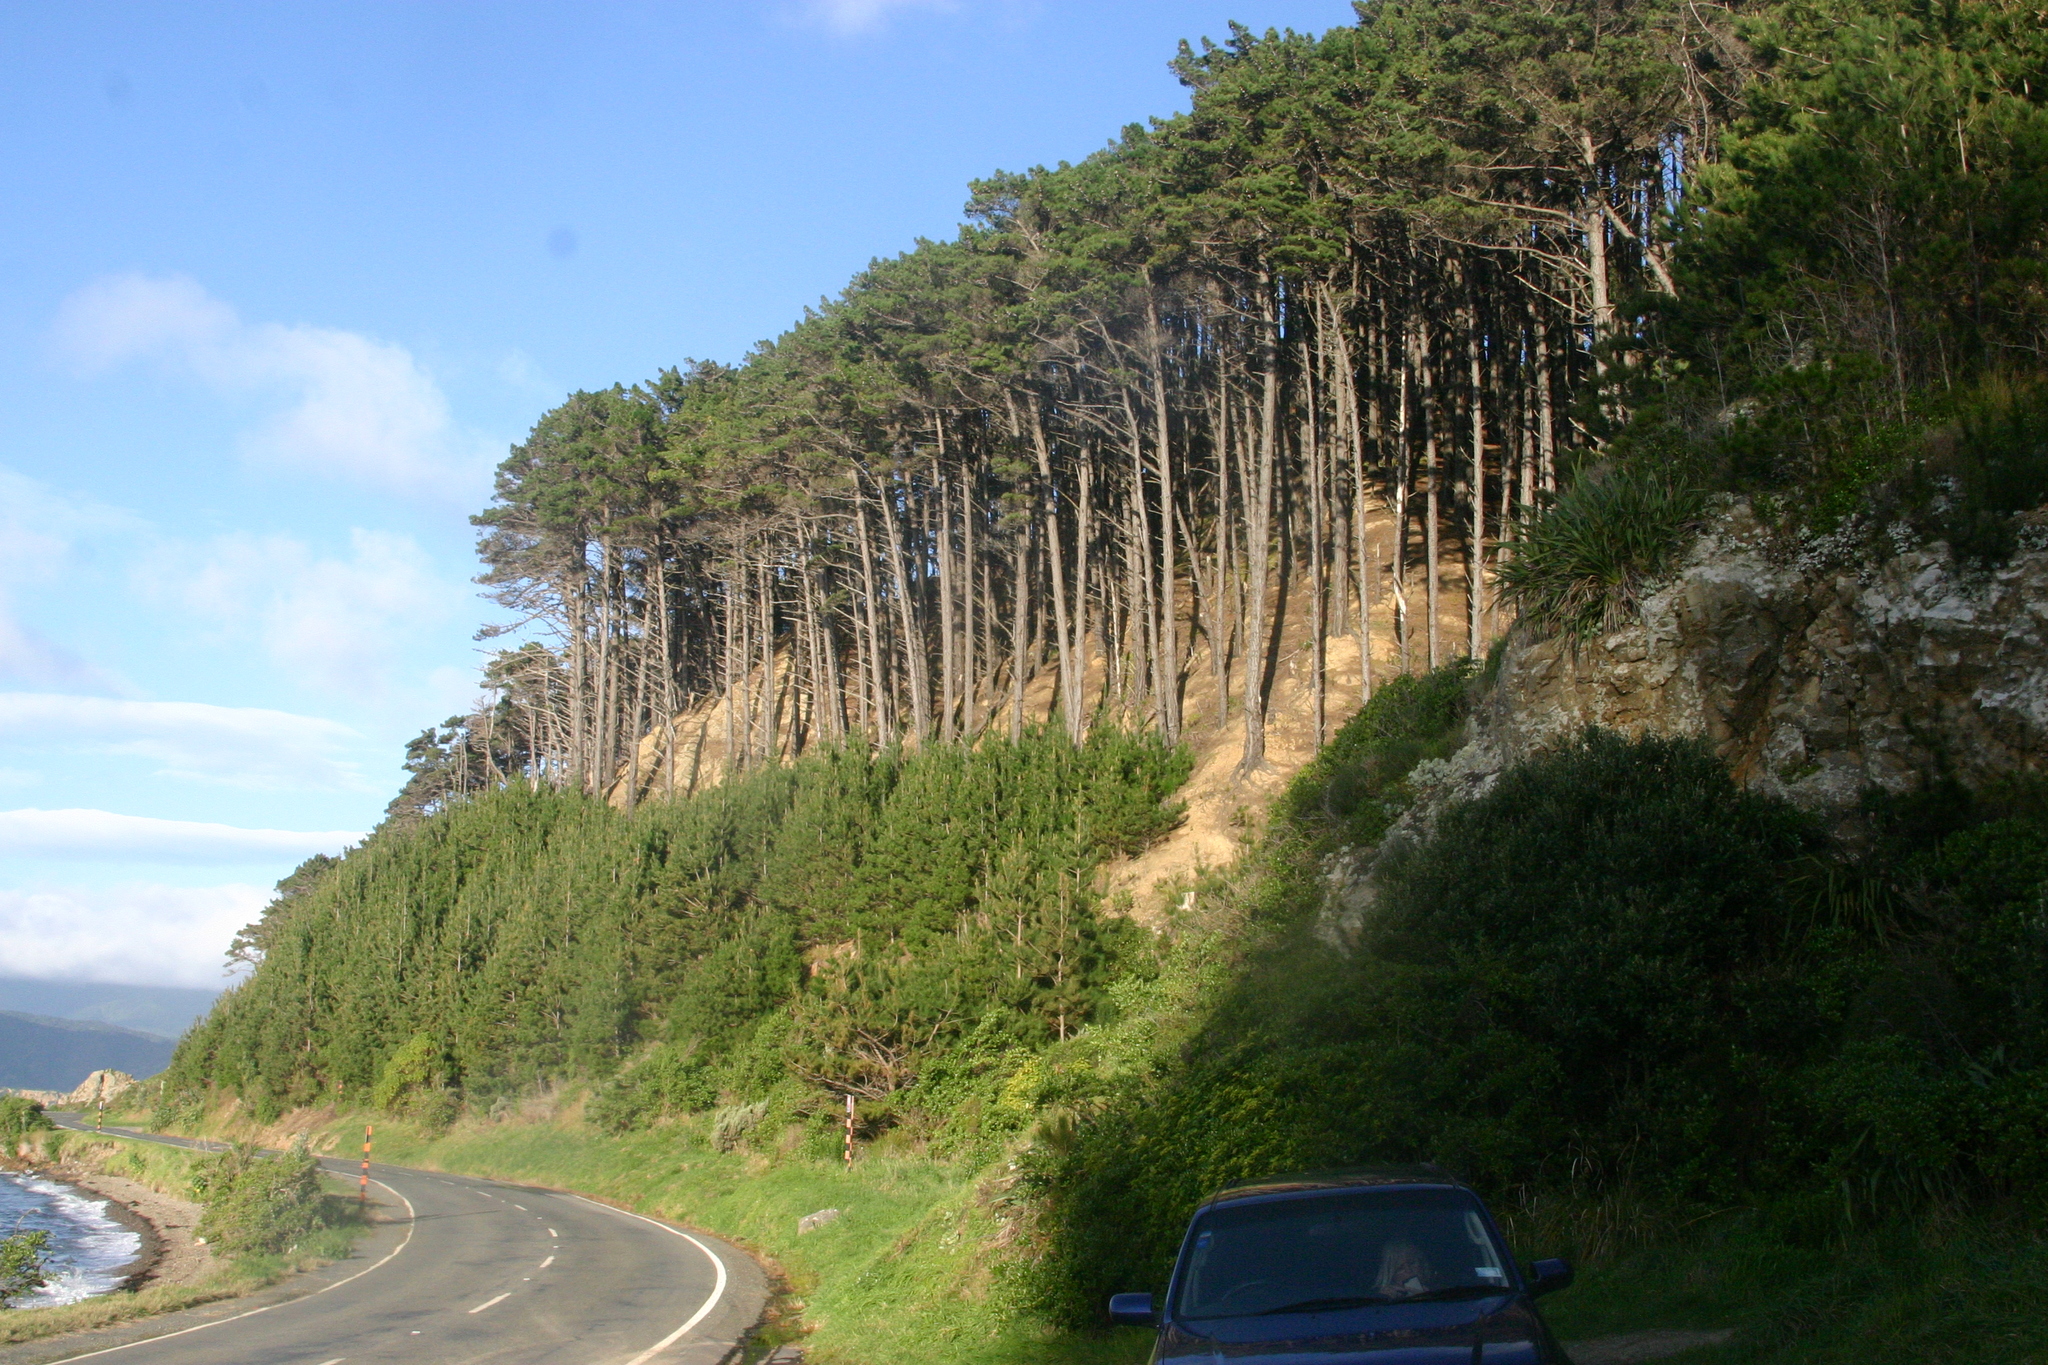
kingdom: Plantae
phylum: Tracheophyta
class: Pinopsida
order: Pinales
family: Pinaceae
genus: Pinus
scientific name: Pinus radiata
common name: Monterey pine
